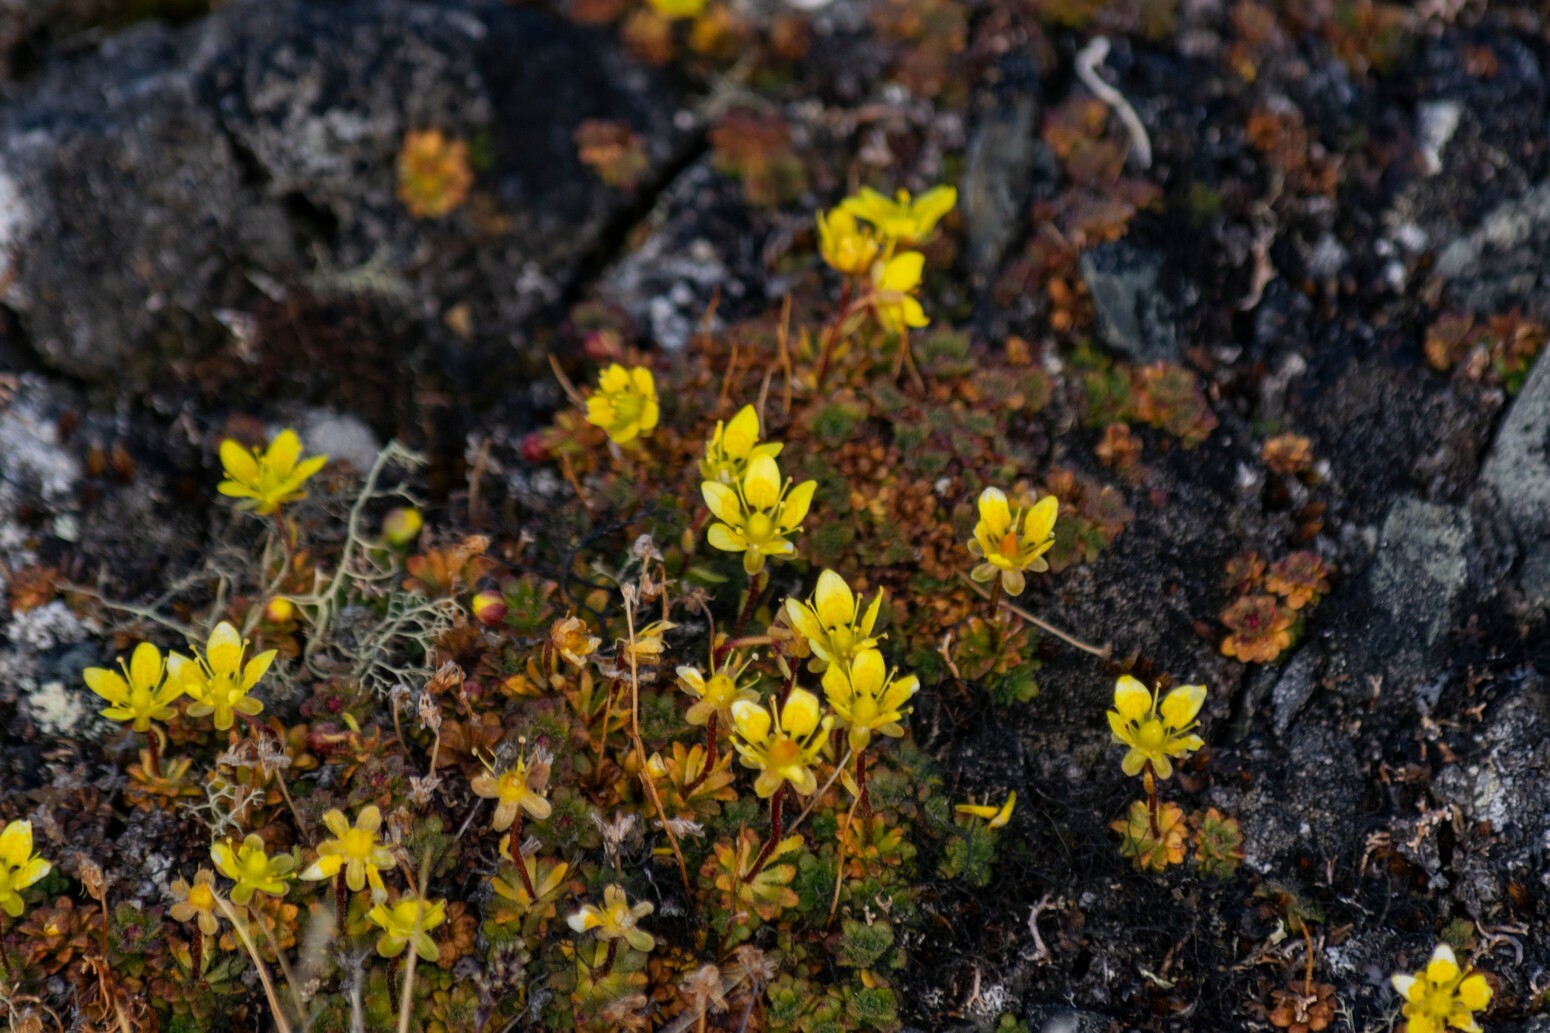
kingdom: Plantae
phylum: Tracheophyta
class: Magnoliopsida
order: Saxifragales
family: Saxifragaceae
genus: Saxifraga
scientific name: Saxifraga hirculus
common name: Yellow marsh saxifrage
